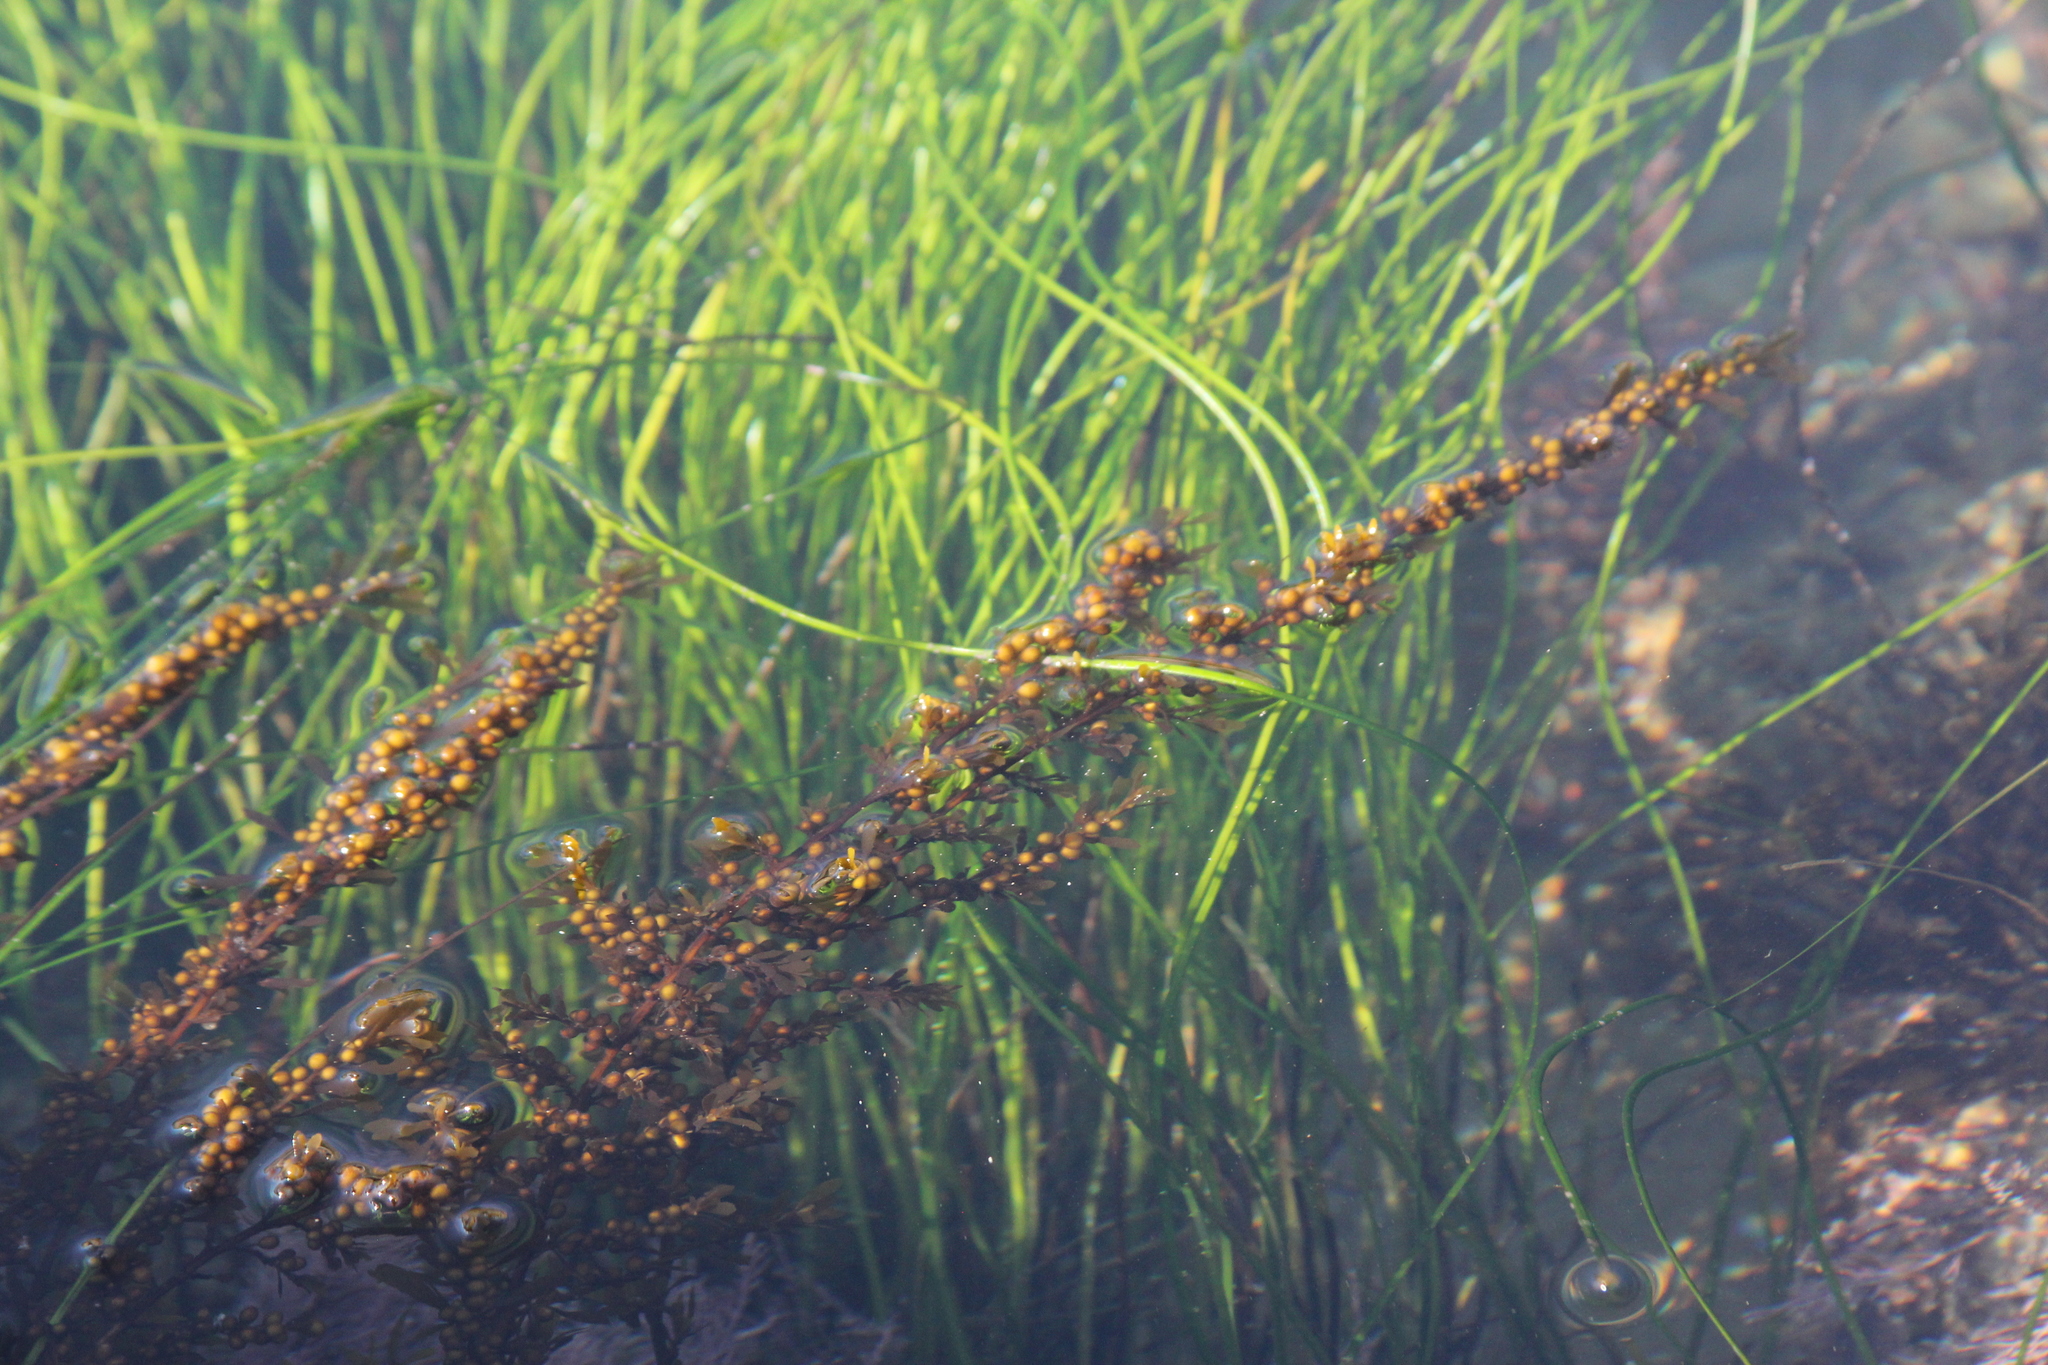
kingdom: Chromista
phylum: Ochrophyta
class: Phaeophyceae
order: Fucales
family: Sargassaceae
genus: Sargassum
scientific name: Sargassum muticum
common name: Japweed
